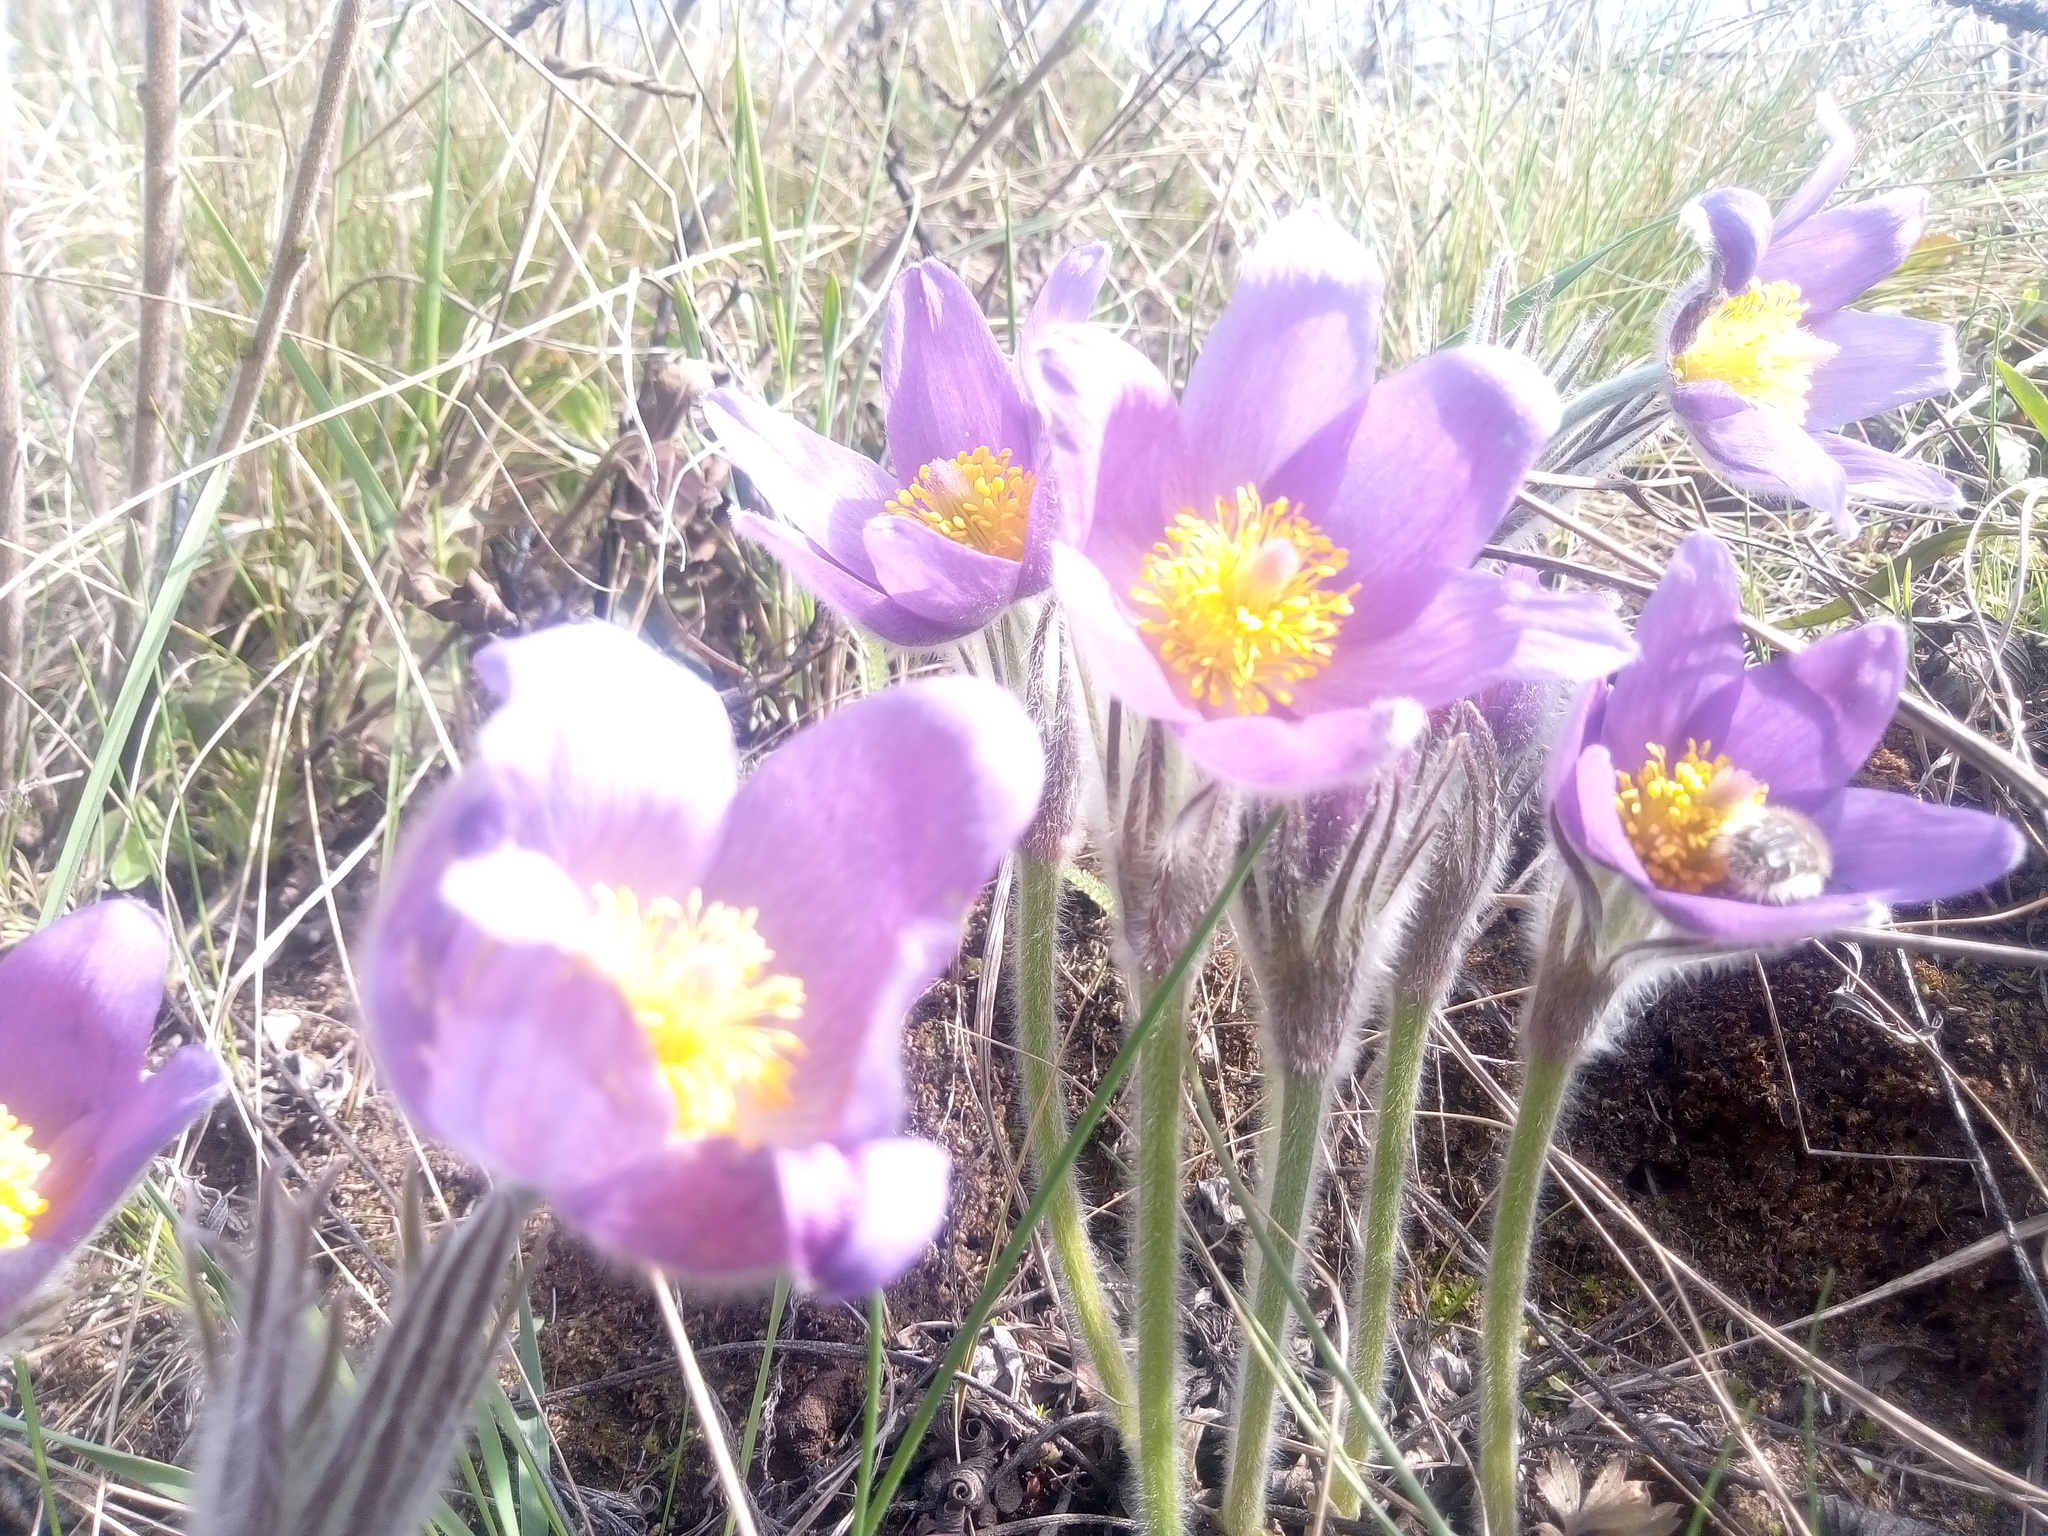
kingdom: Plantae
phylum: Tracheophyta
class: Magnoliopsida
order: Ranunculales
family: Ranunculaceae
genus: Pulsatilla
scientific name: Pulsatilla patens
